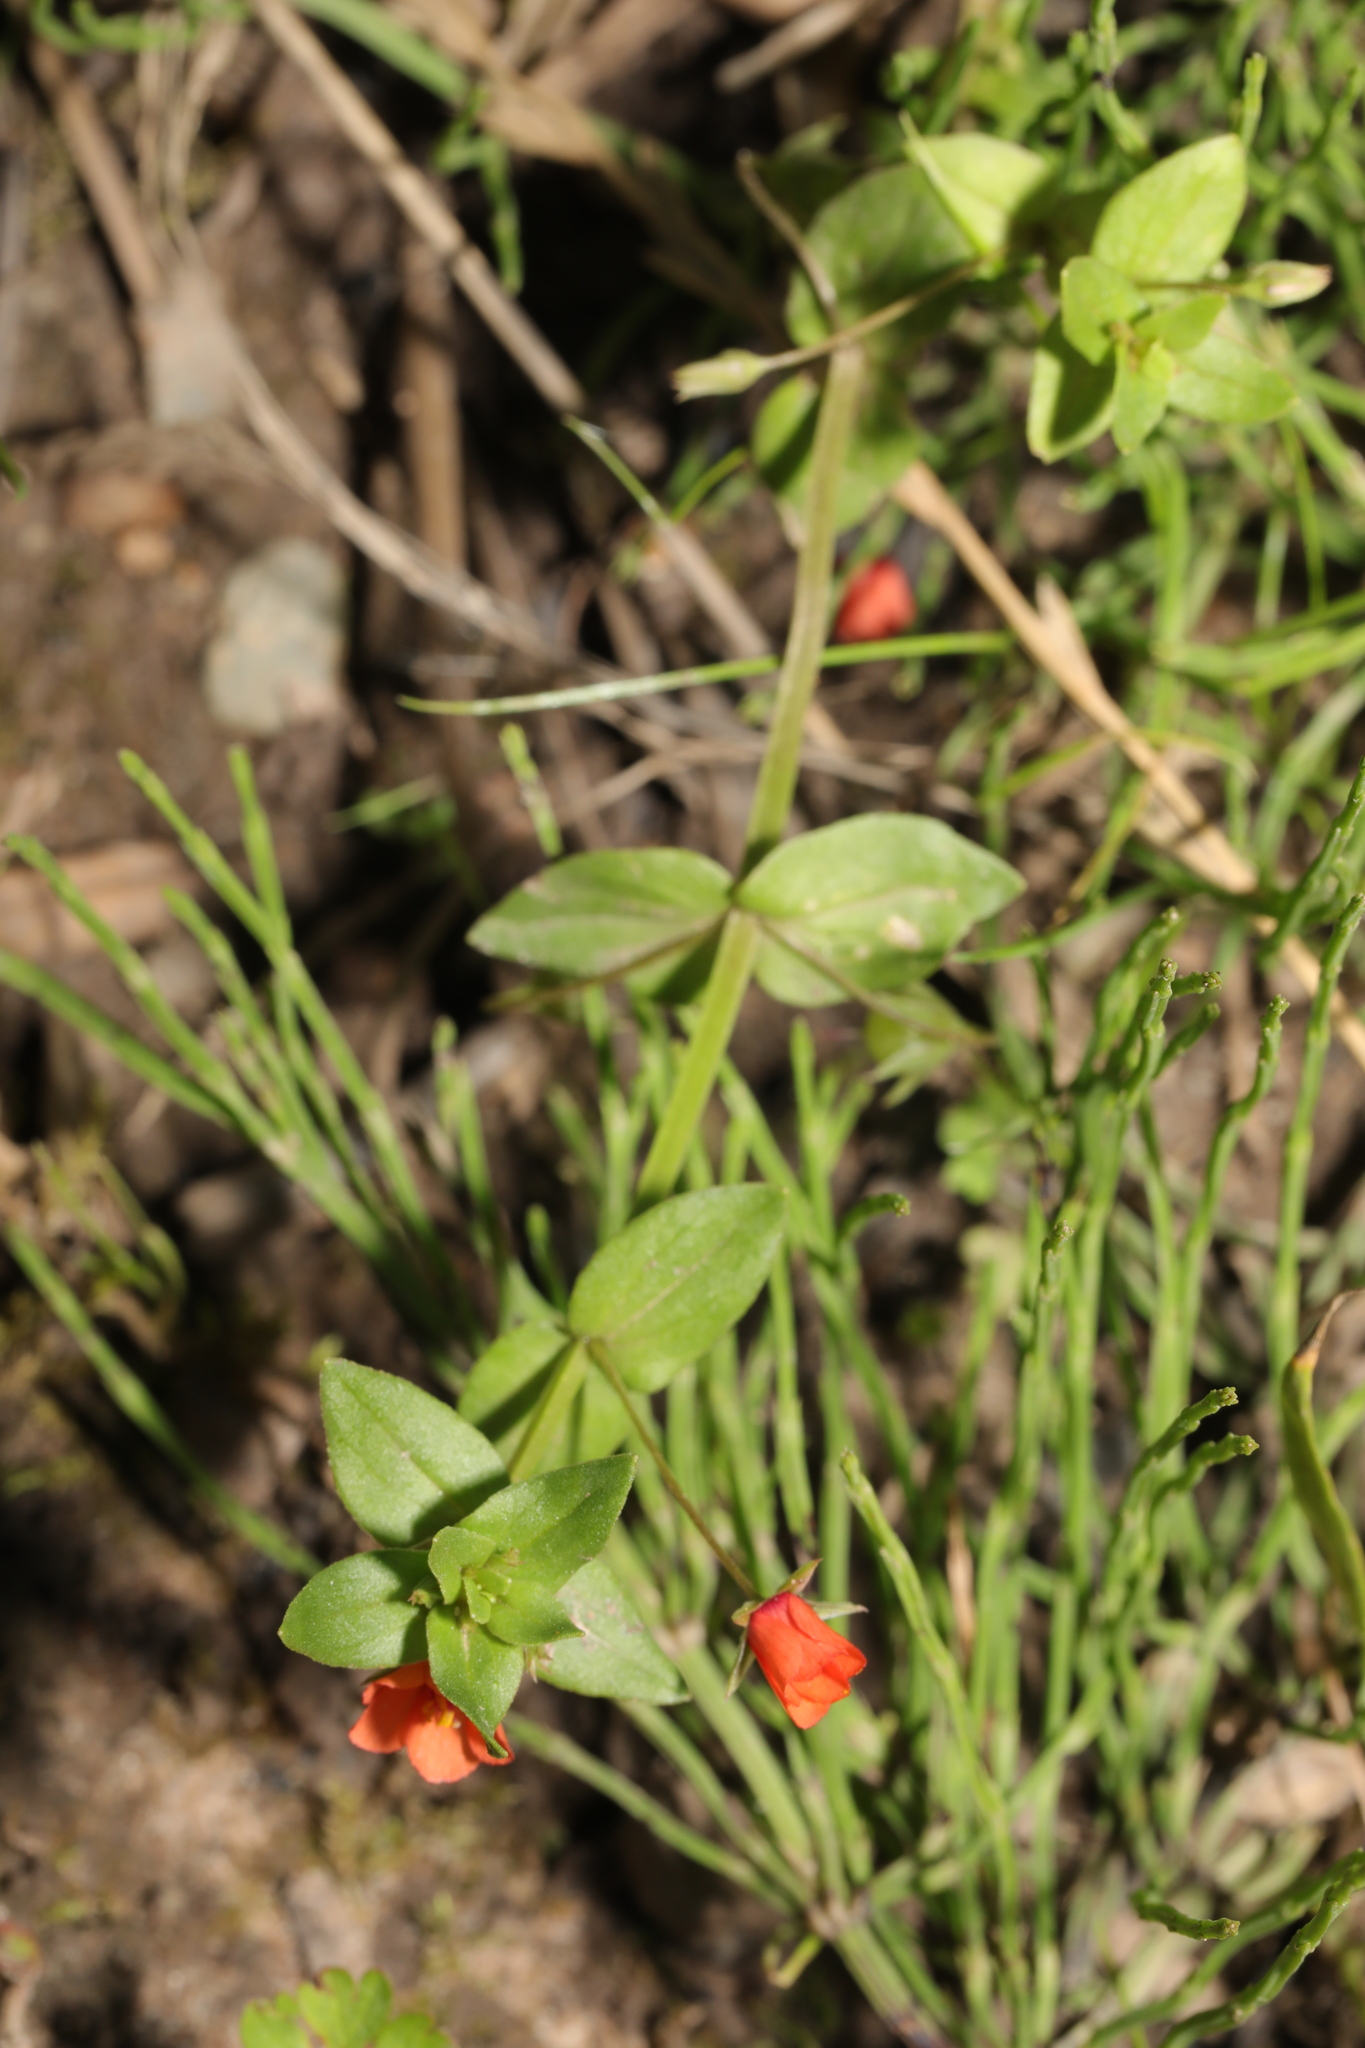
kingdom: Plantae
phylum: Tracheophyta
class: Magnoliopsida
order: Ericales
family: Primulaceae
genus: Lysimachia
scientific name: Lysimachia arvensis
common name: Scarlet pimpernel
